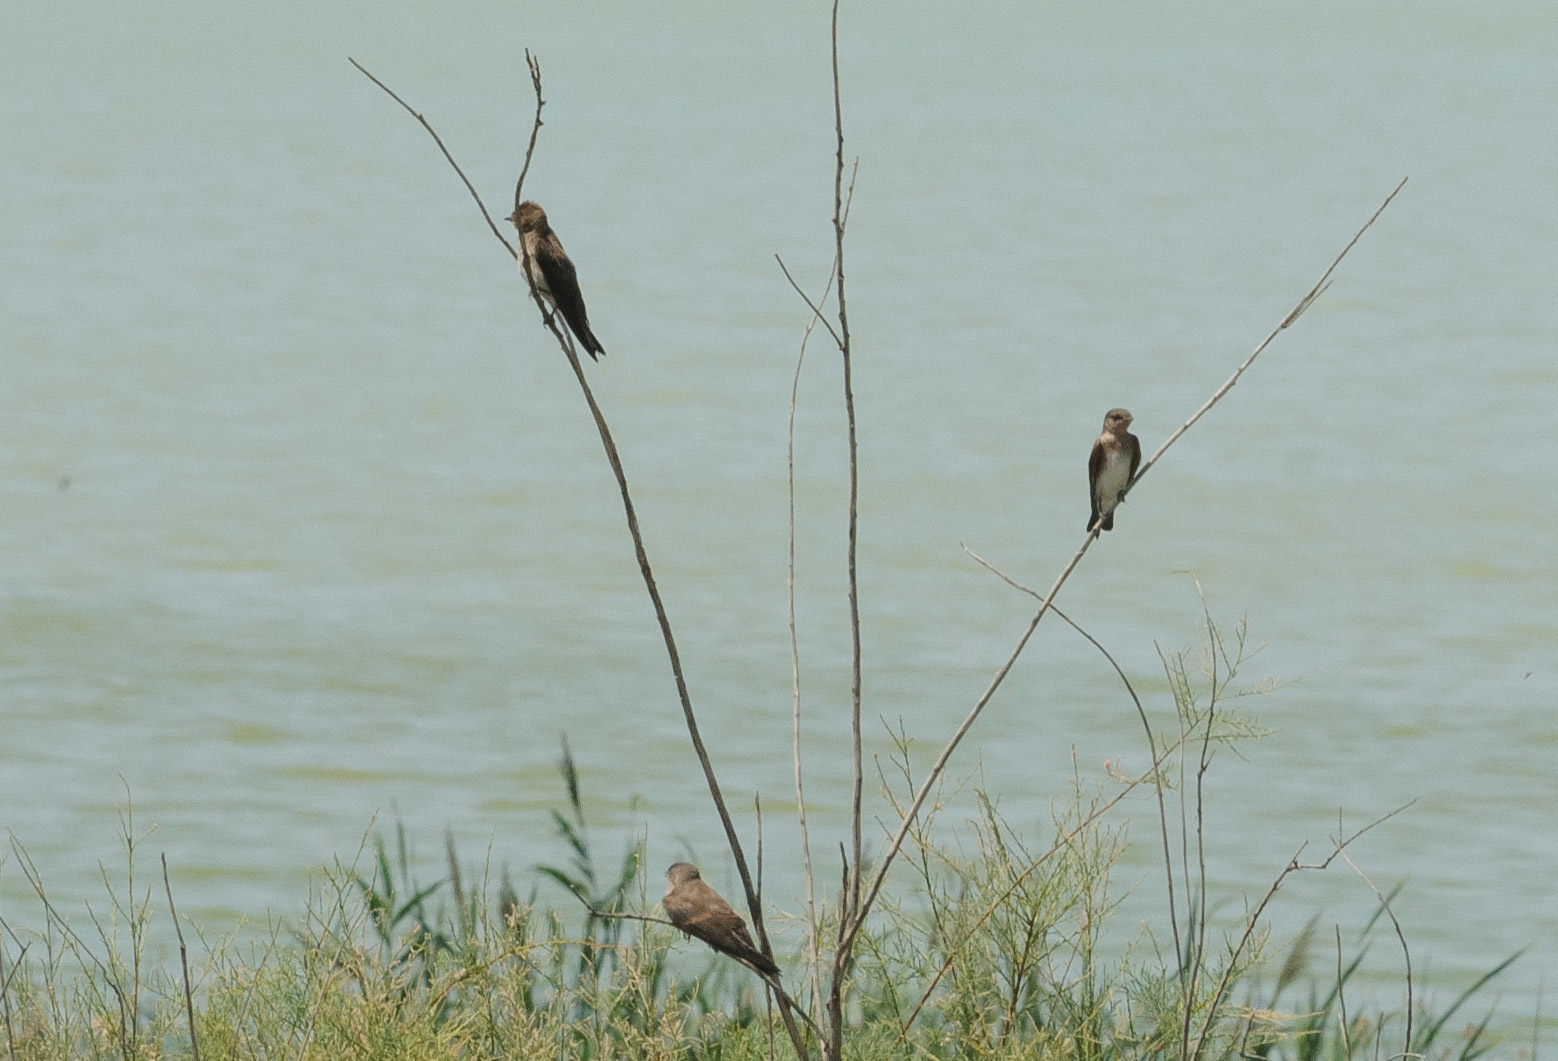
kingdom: Animalia
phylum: Chordata
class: Aves
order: Passeriformes
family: Hirundinidae
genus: Stelgidopteryx
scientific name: Stelgidopteryx serripennis
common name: Northern rough-winged swallow
